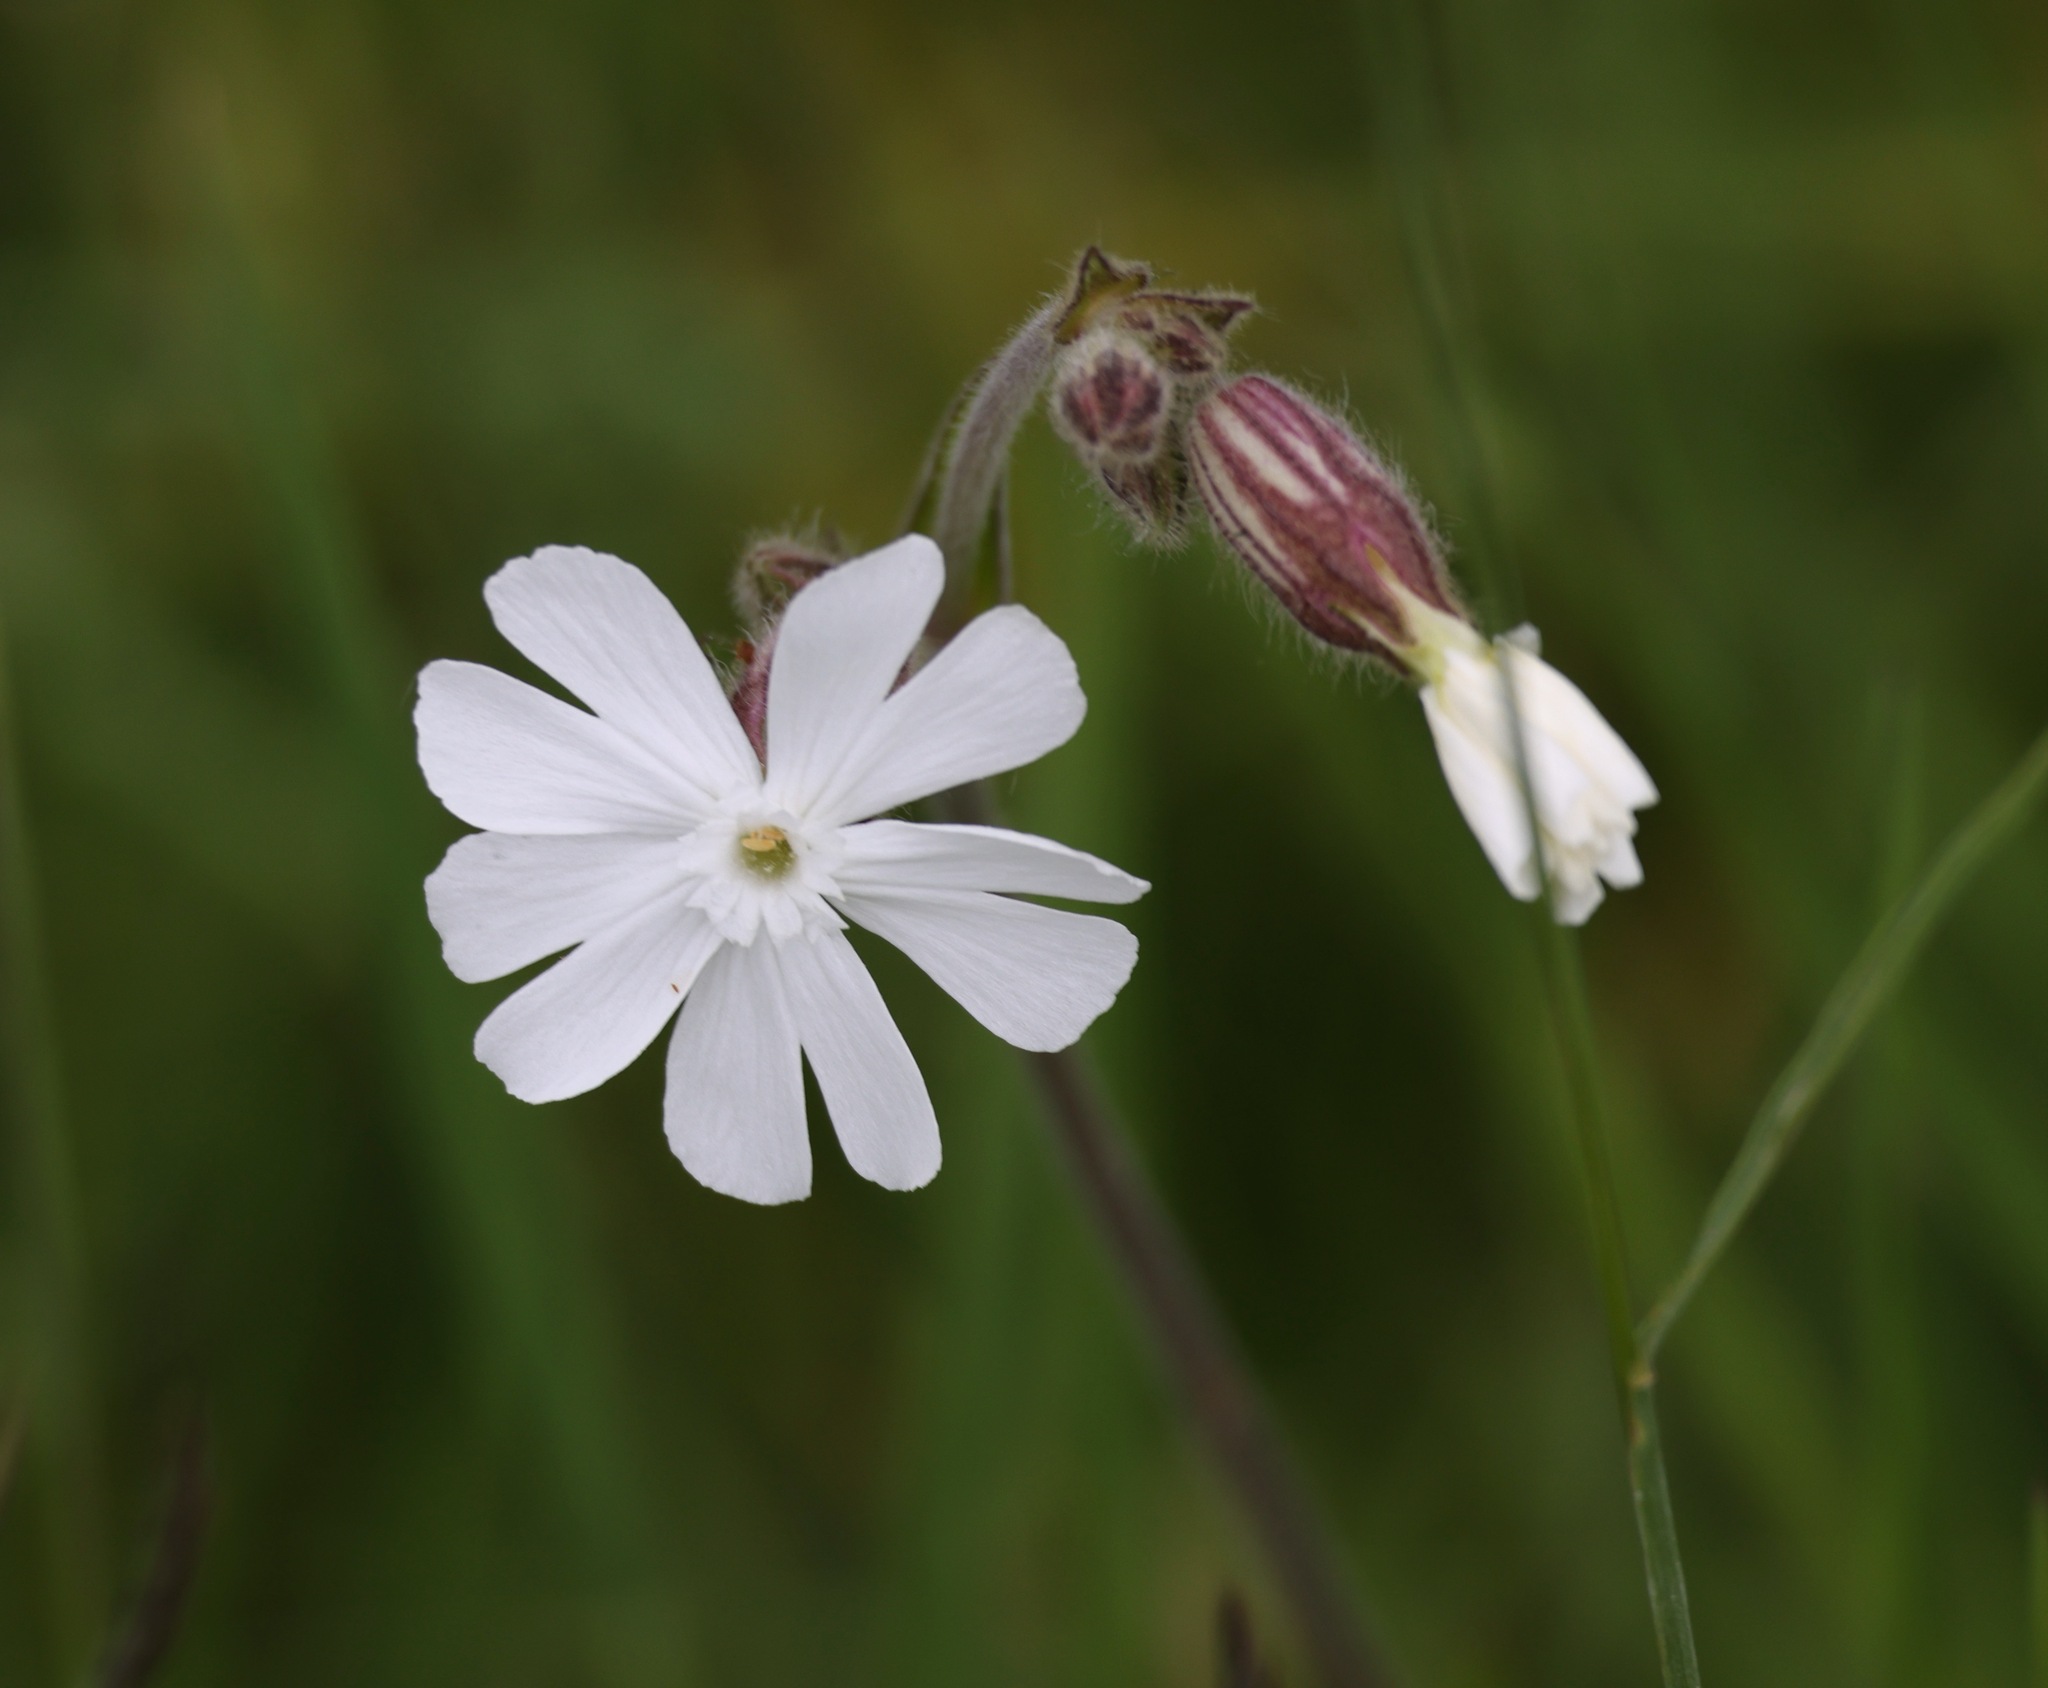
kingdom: Plantae
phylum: Tracheophyta
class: Magnoliopsida
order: Caryophyllales
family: Caryophyllaceae
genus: Silene
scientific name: Silene latifolia
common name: White campion
